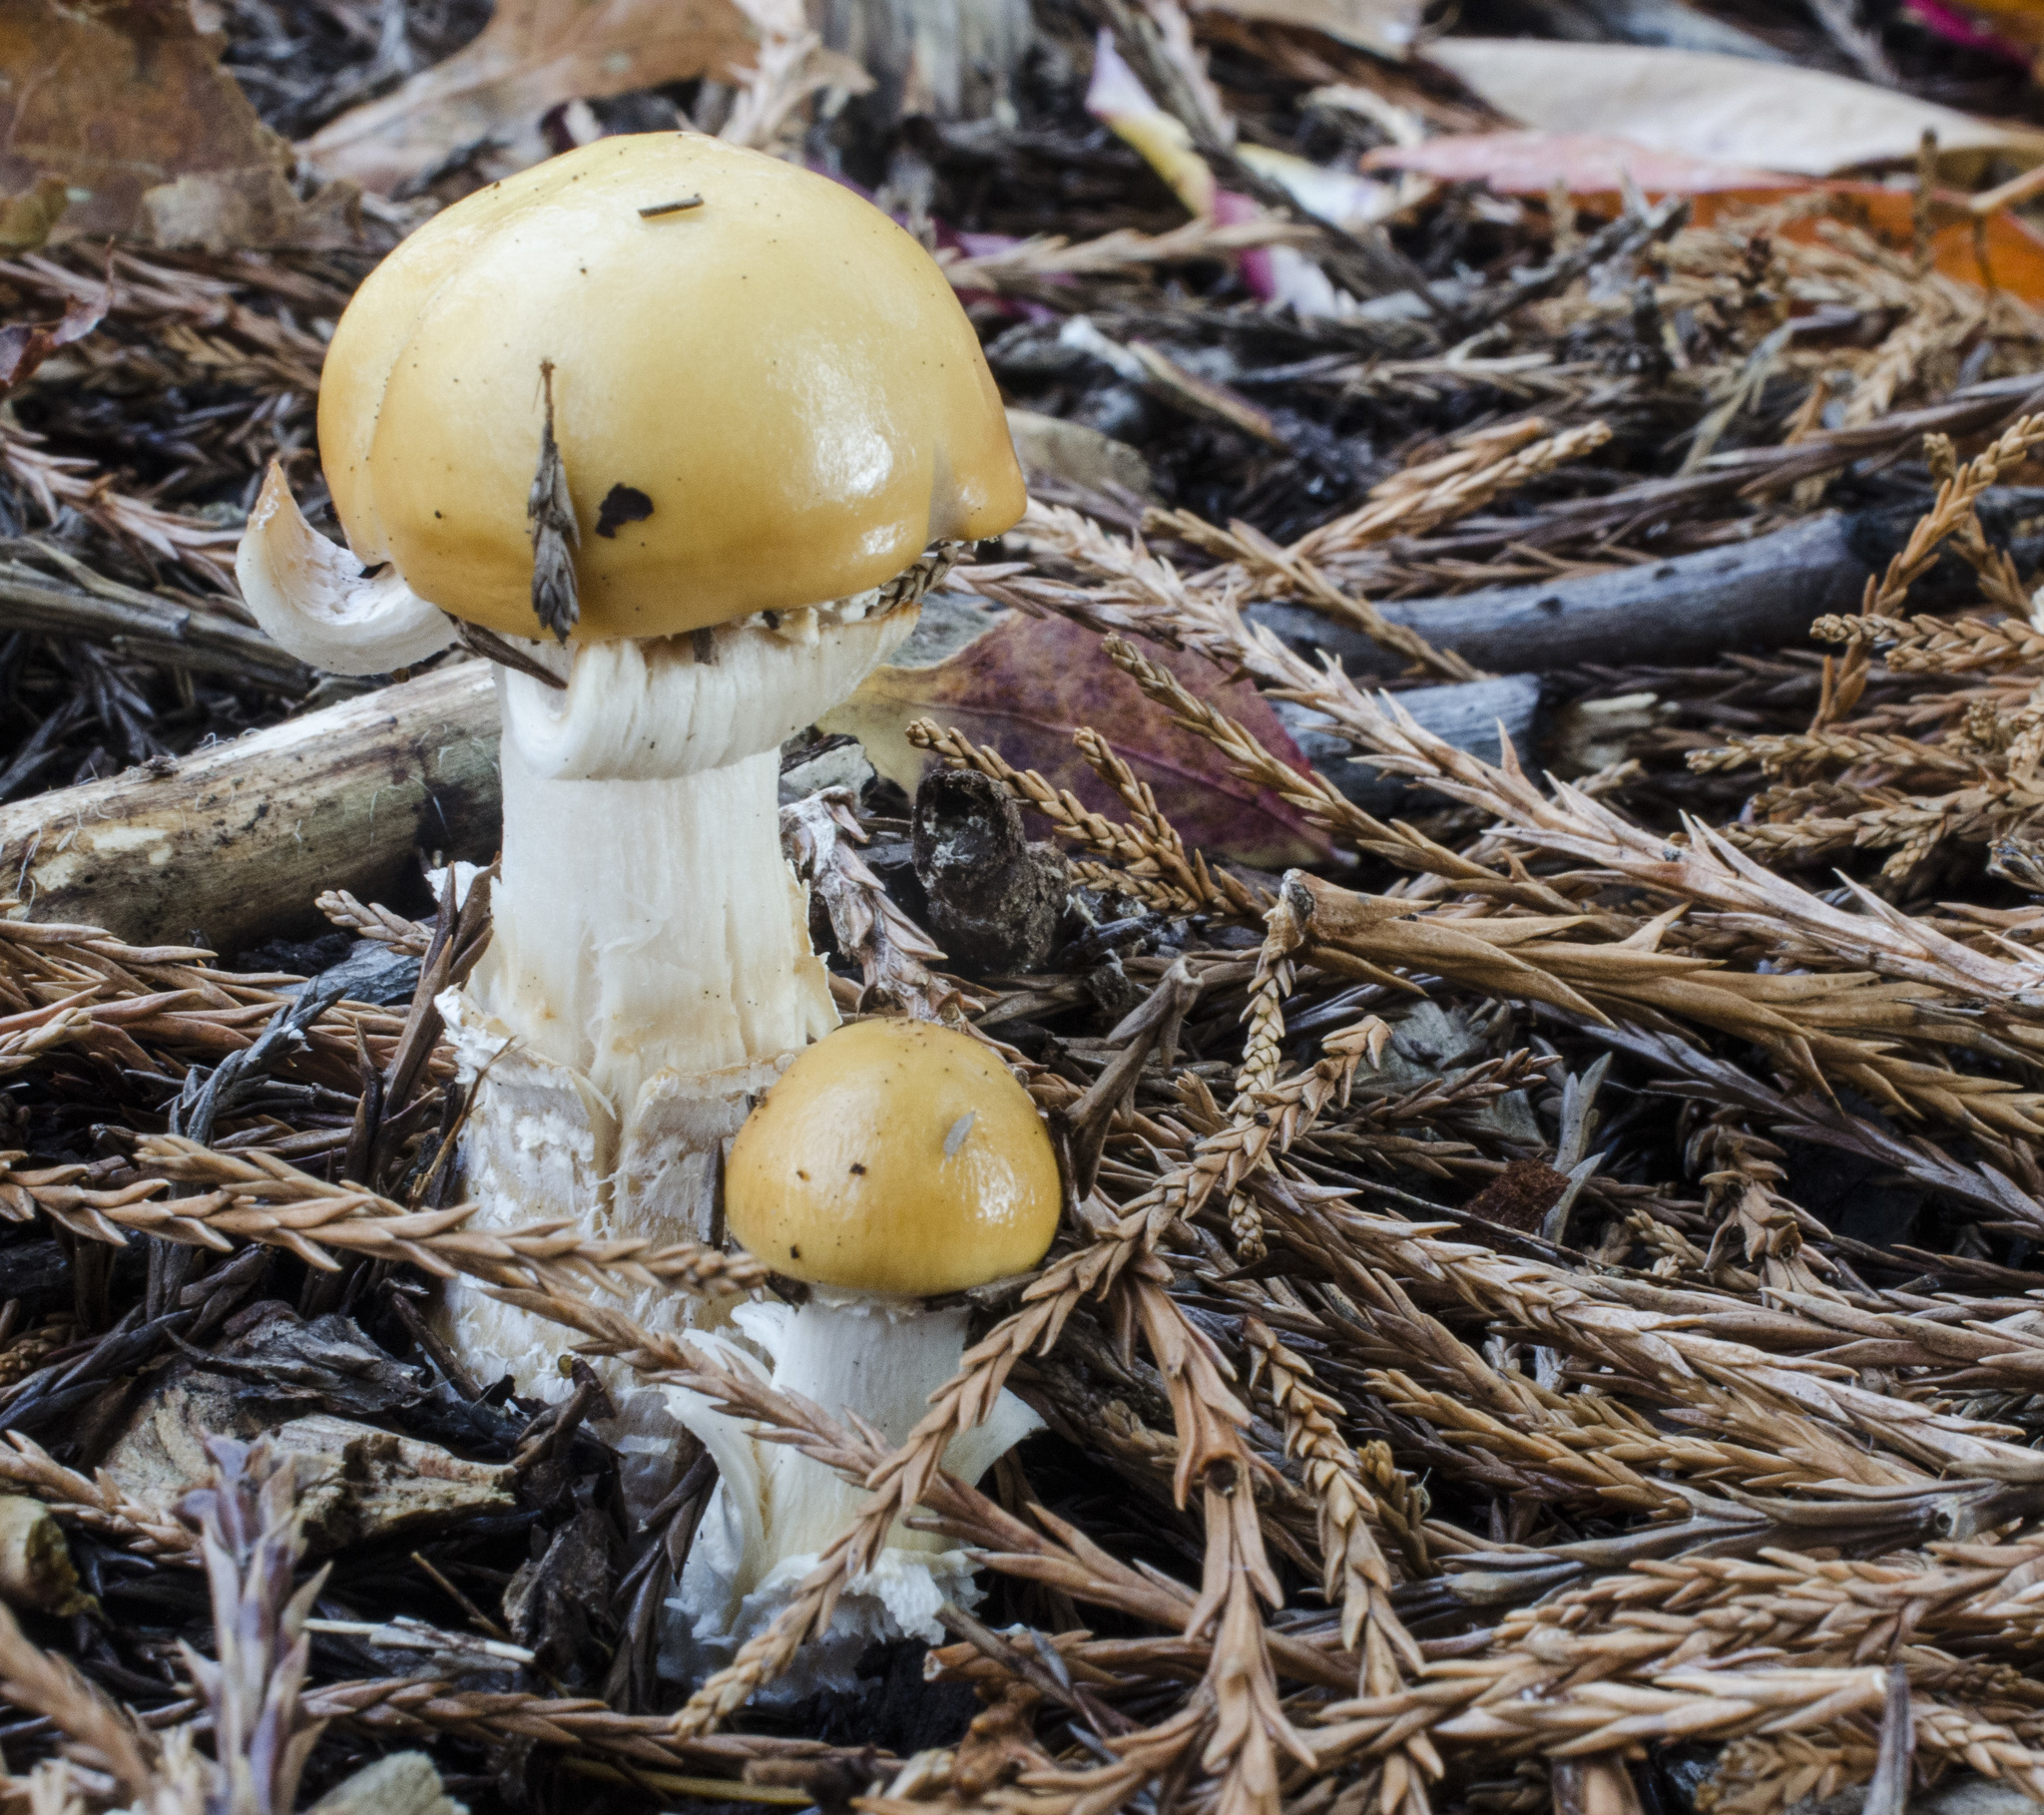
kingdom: Fungi
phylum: Basidiomycota
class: Agaricomycetes
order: Agaricales
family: Strophariaceae
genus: Stropharia
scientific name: Stropharia ambigua
